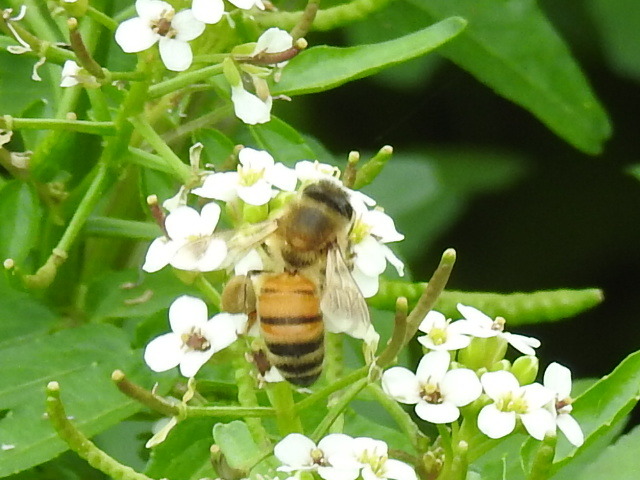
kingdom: Animalia
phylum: Arthropoda
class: Insecta
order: Hymenoptera
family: Apidae
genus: Apis
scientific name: Apis mellifera
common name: Honey bee
